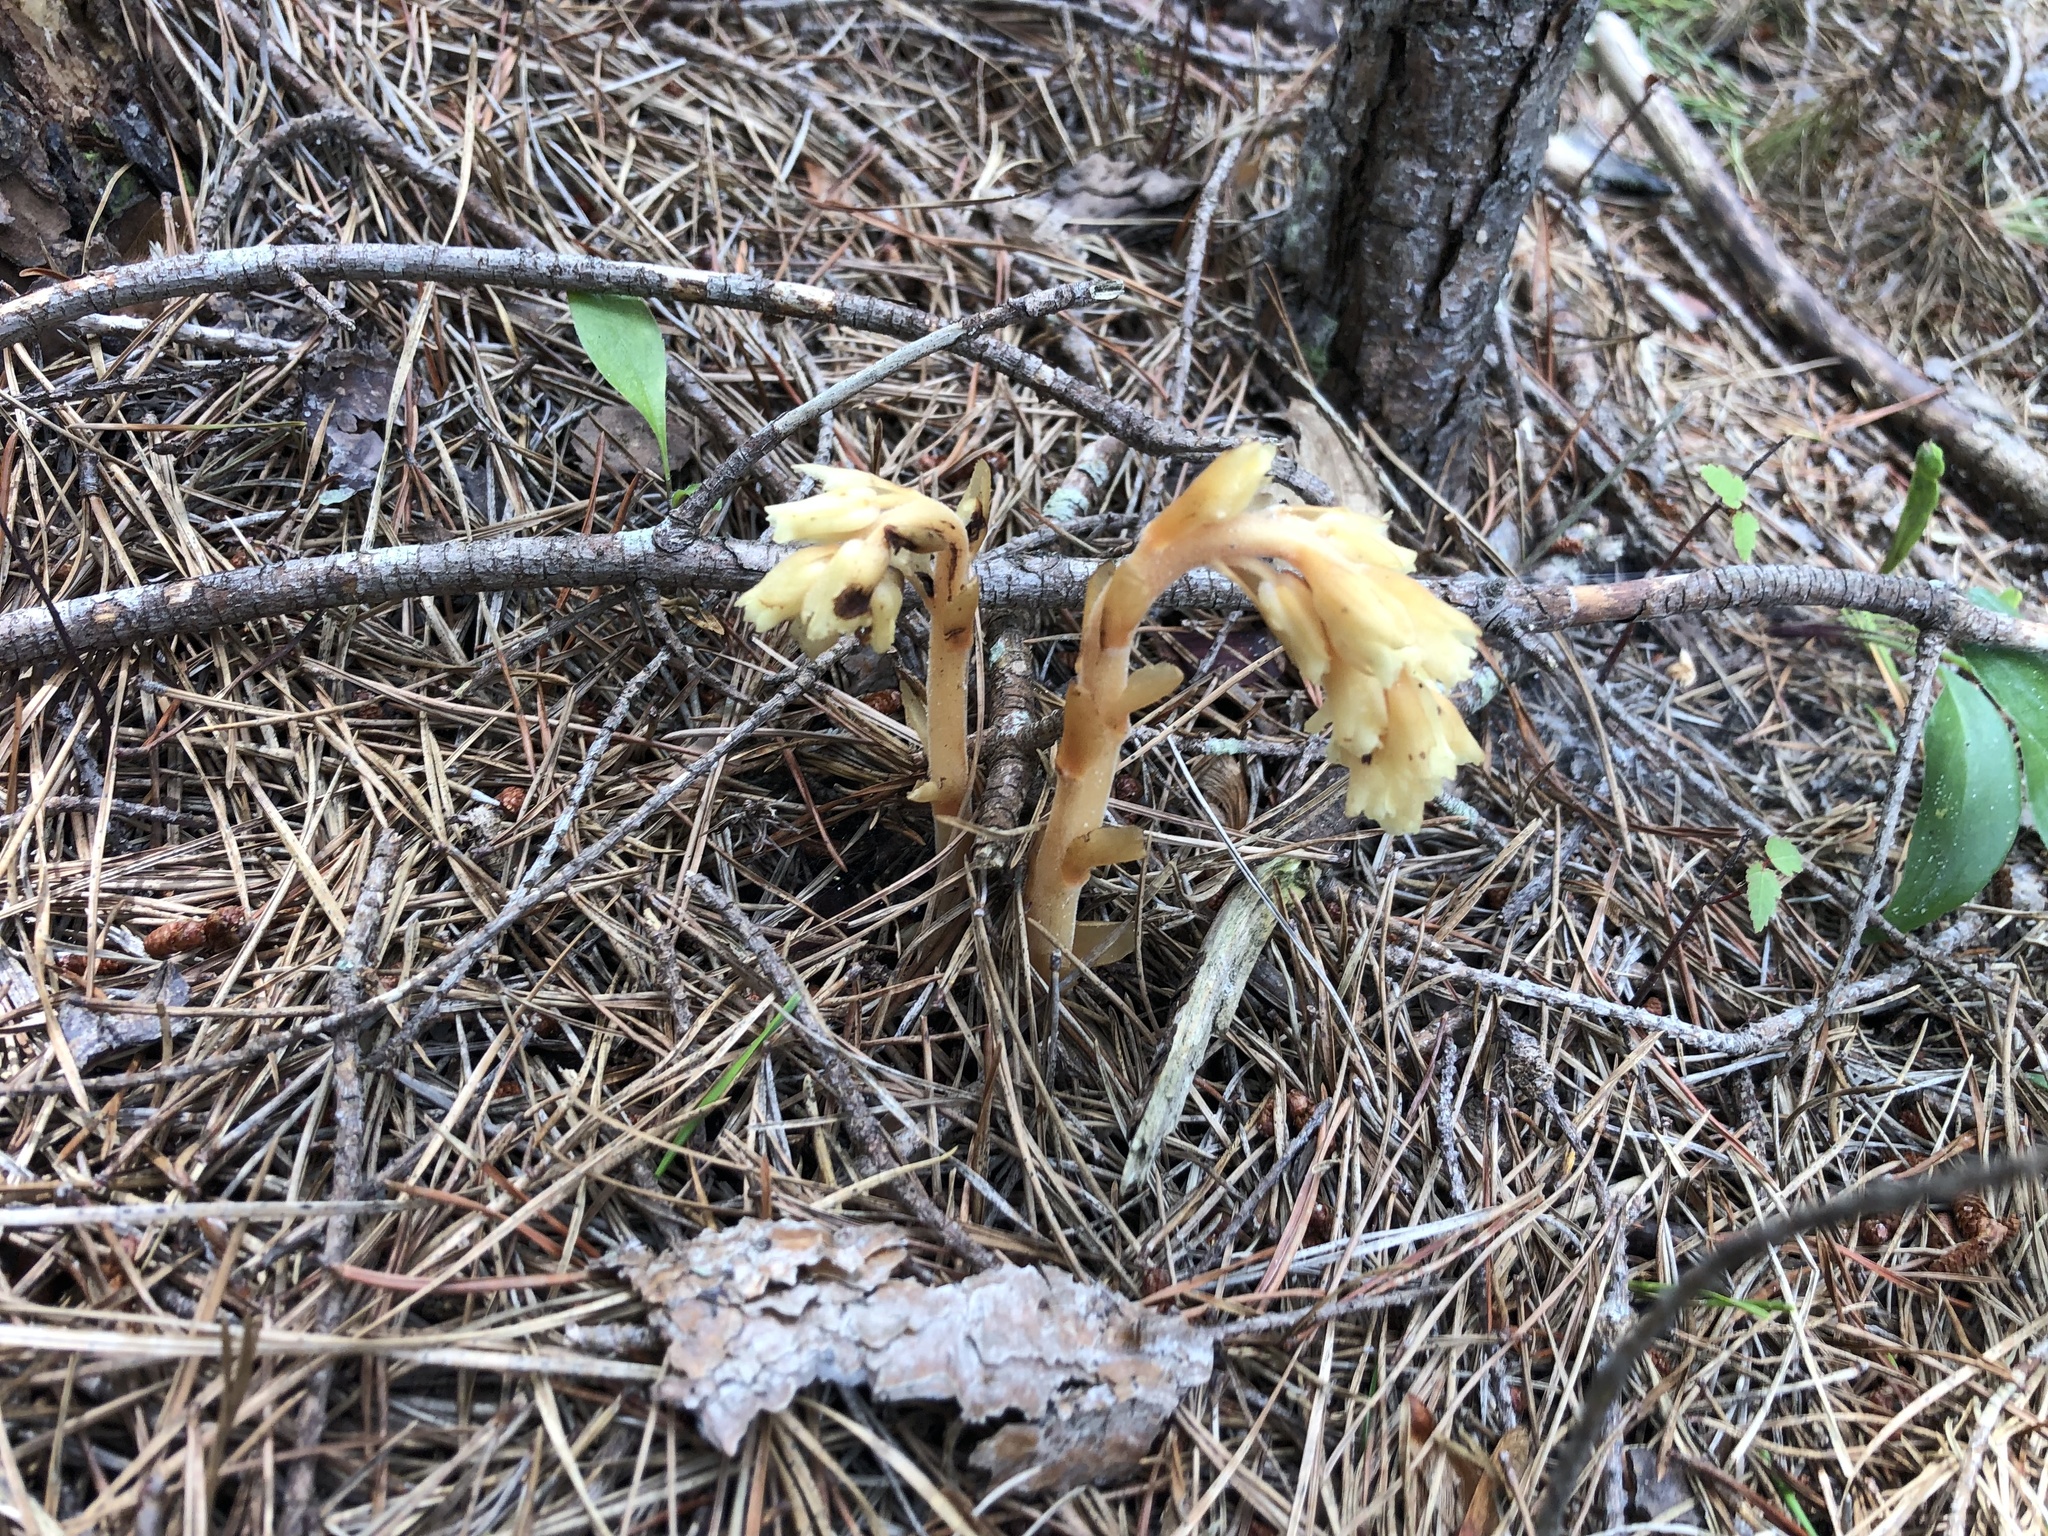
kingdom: Plantae
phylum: Tracheophyta
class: Magnoliopsida
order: Ericales
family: Ericaceae
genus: Hypopitys
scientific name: Hypopitys monotropa
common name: Yellow bird's-nest
